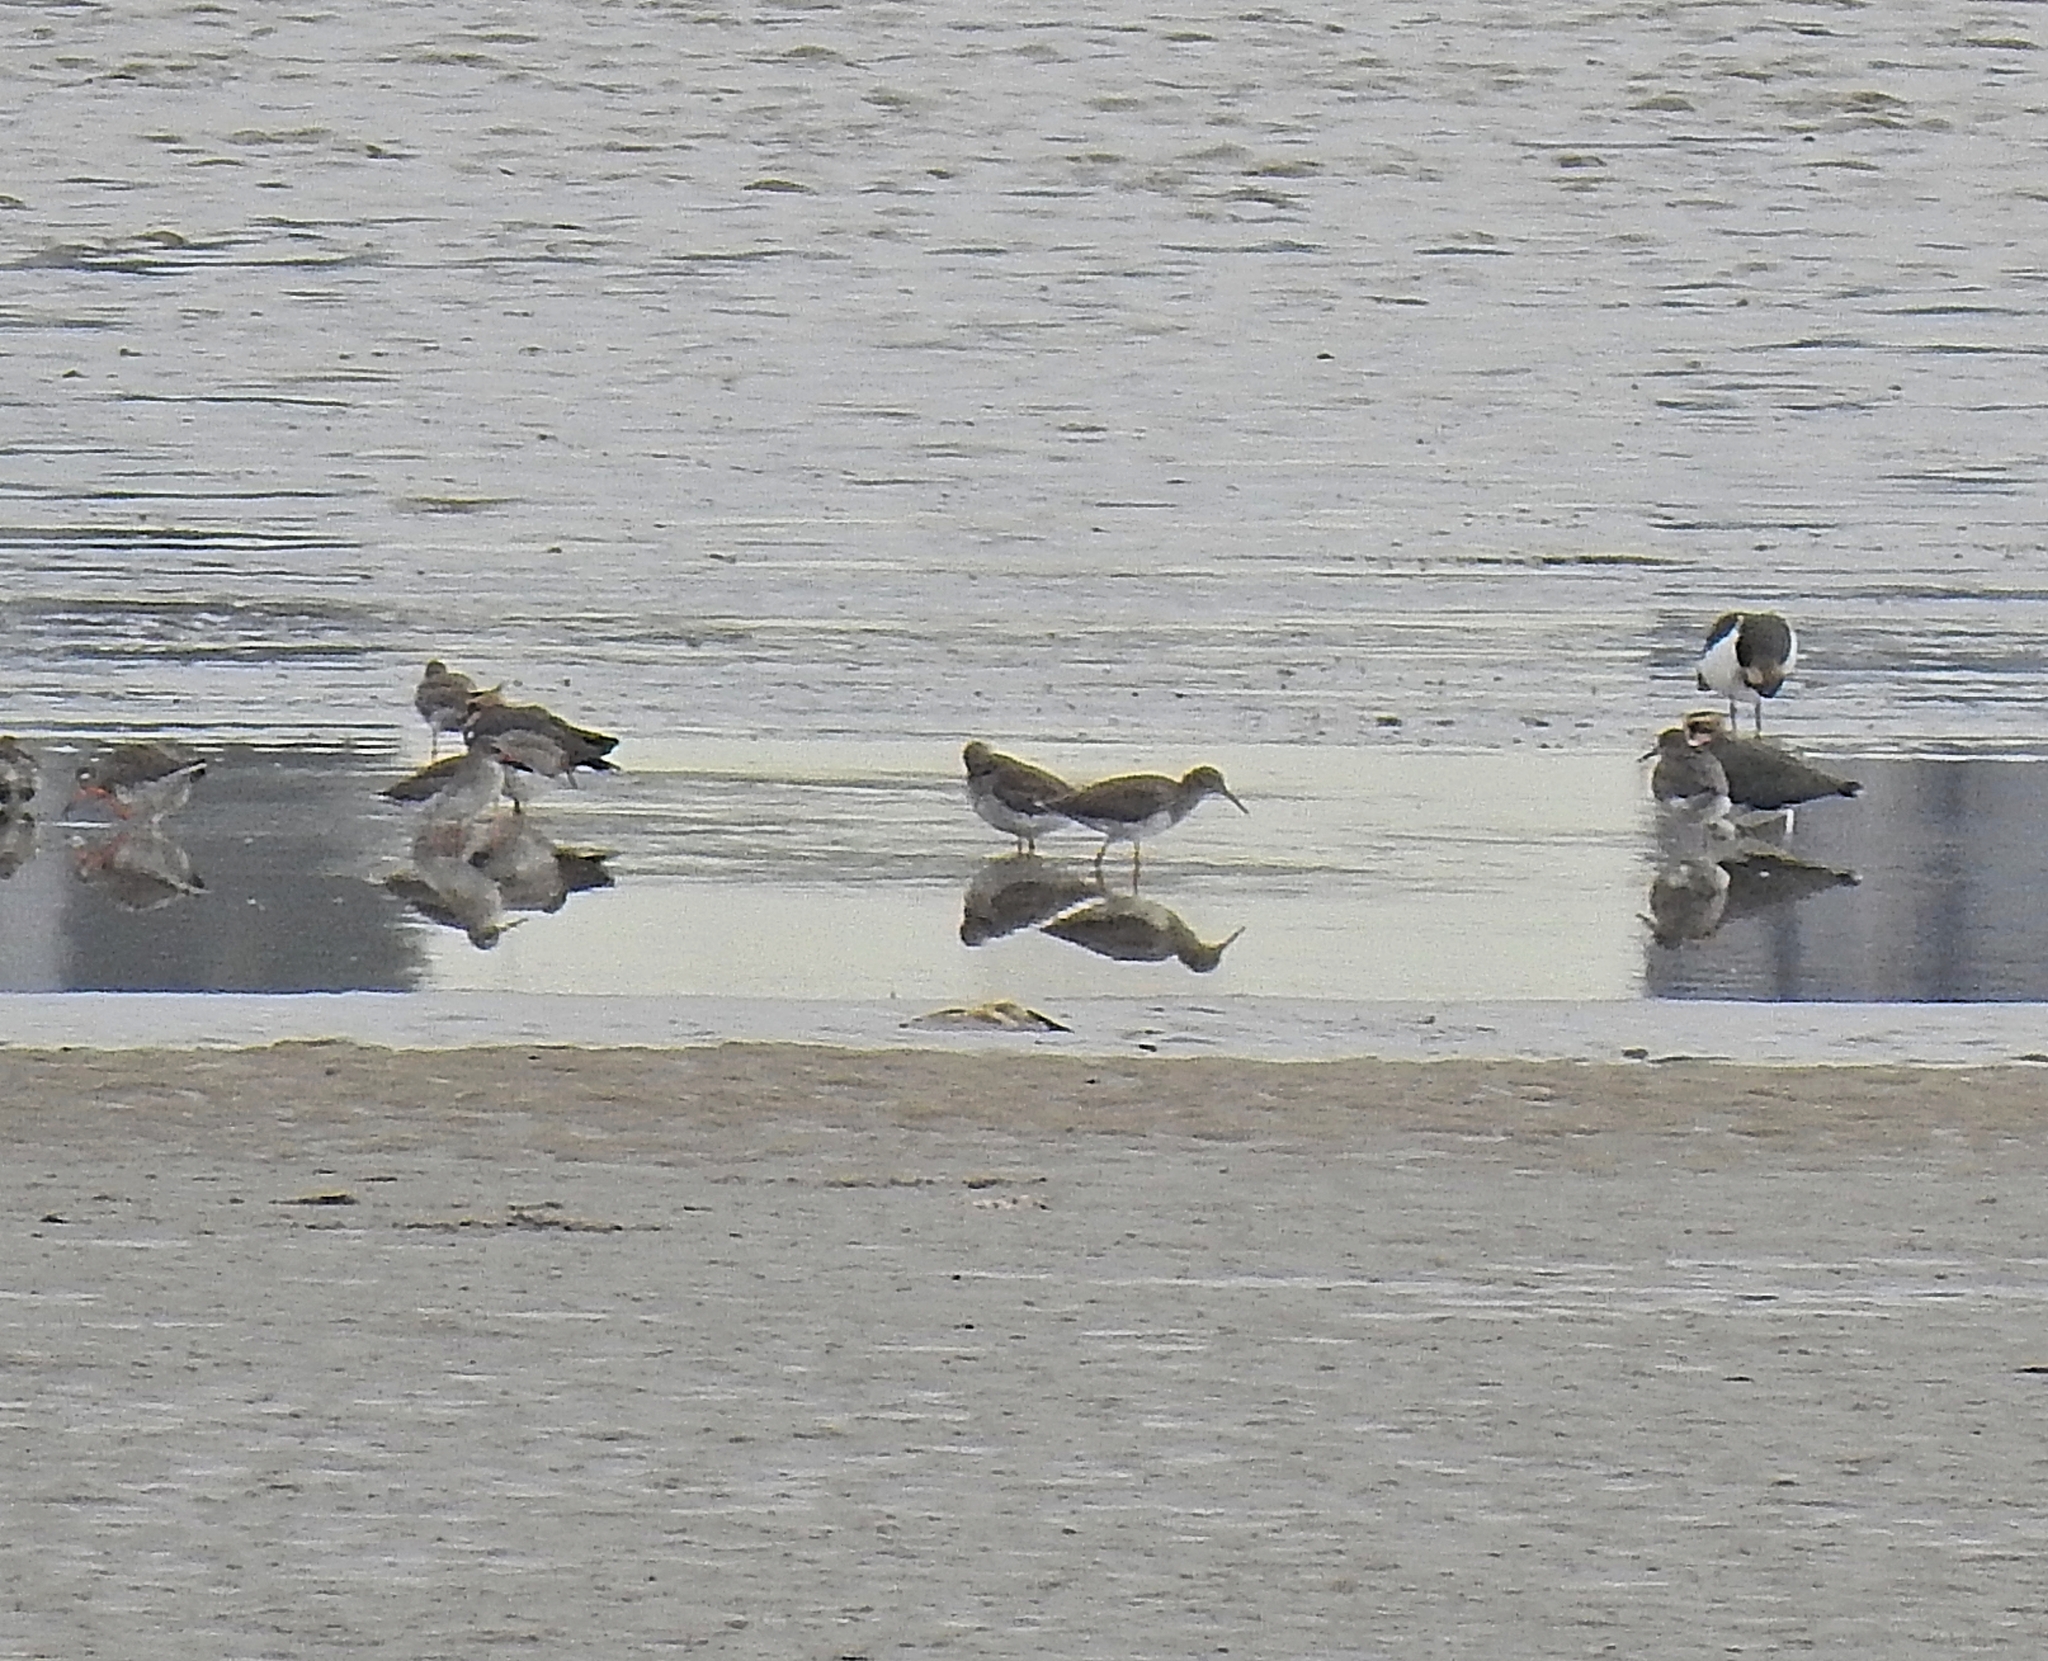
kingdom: Animalia
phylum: Chordata
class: Aves
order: Charadriiformes
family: Scolopacidae
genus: Tringa
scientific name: Tringa totanus
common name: Common redshank
